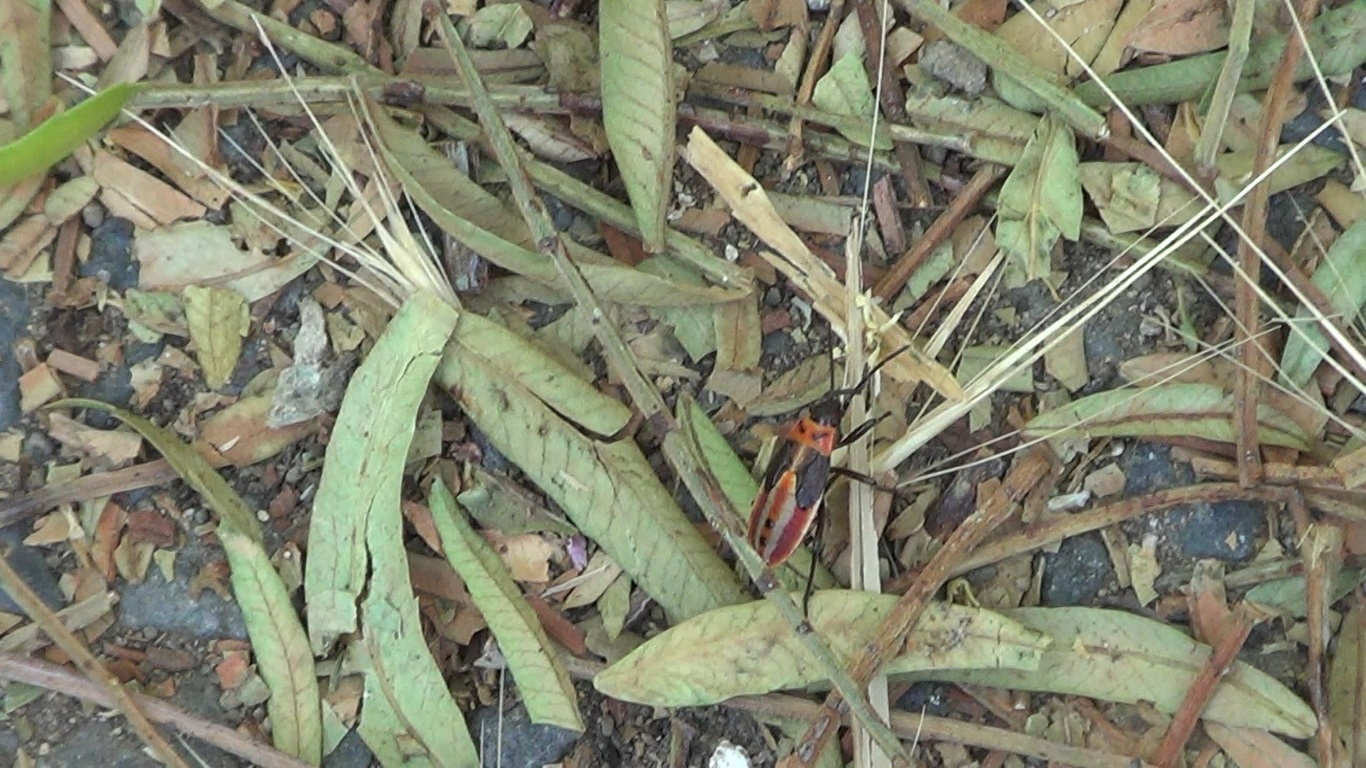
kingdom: Animalia
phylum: Arthropoda
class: Insecta
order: Hemiptera
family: Lygaeidae
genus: Lygaeus
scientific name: Lygaeus creticus
